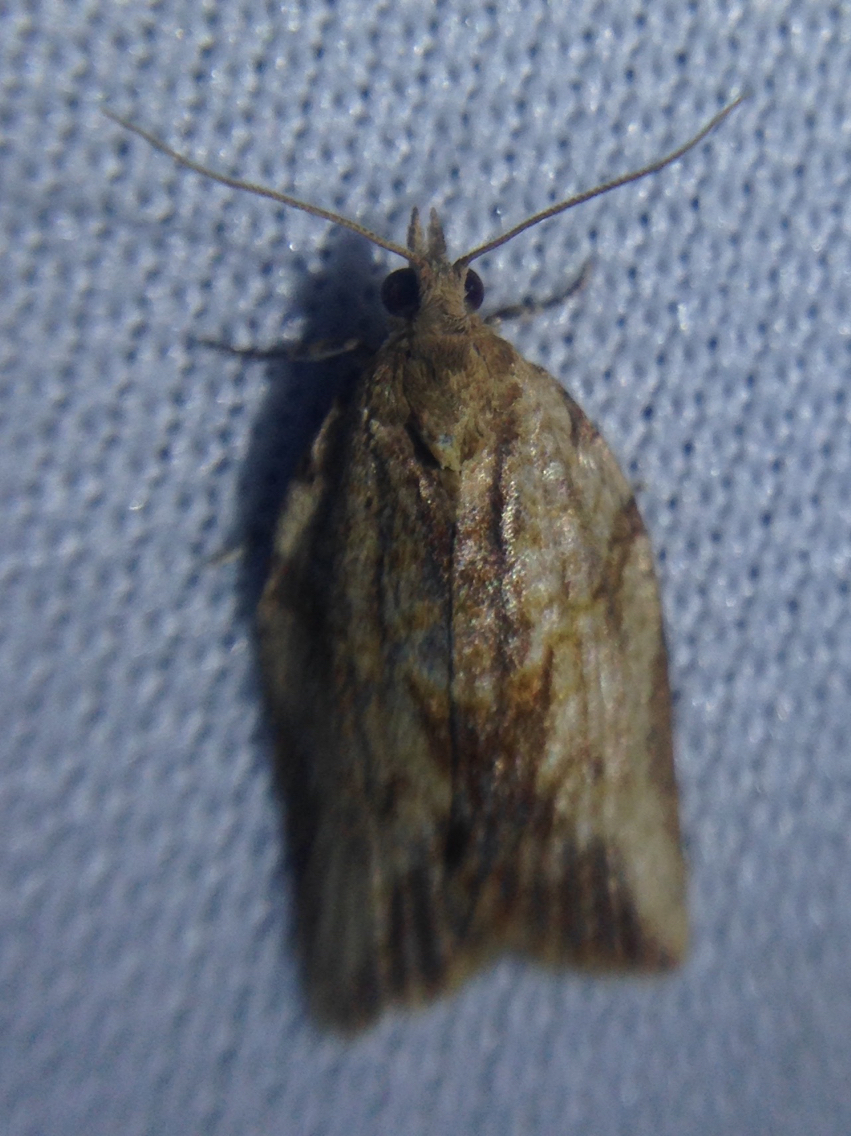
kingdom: Animalia
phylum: Arthropoda
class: Insecta
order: Lepidoptera
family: Tortricidae
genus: Epiphyas
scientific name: Epiphyas postvittana
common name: Light brown apple moth
